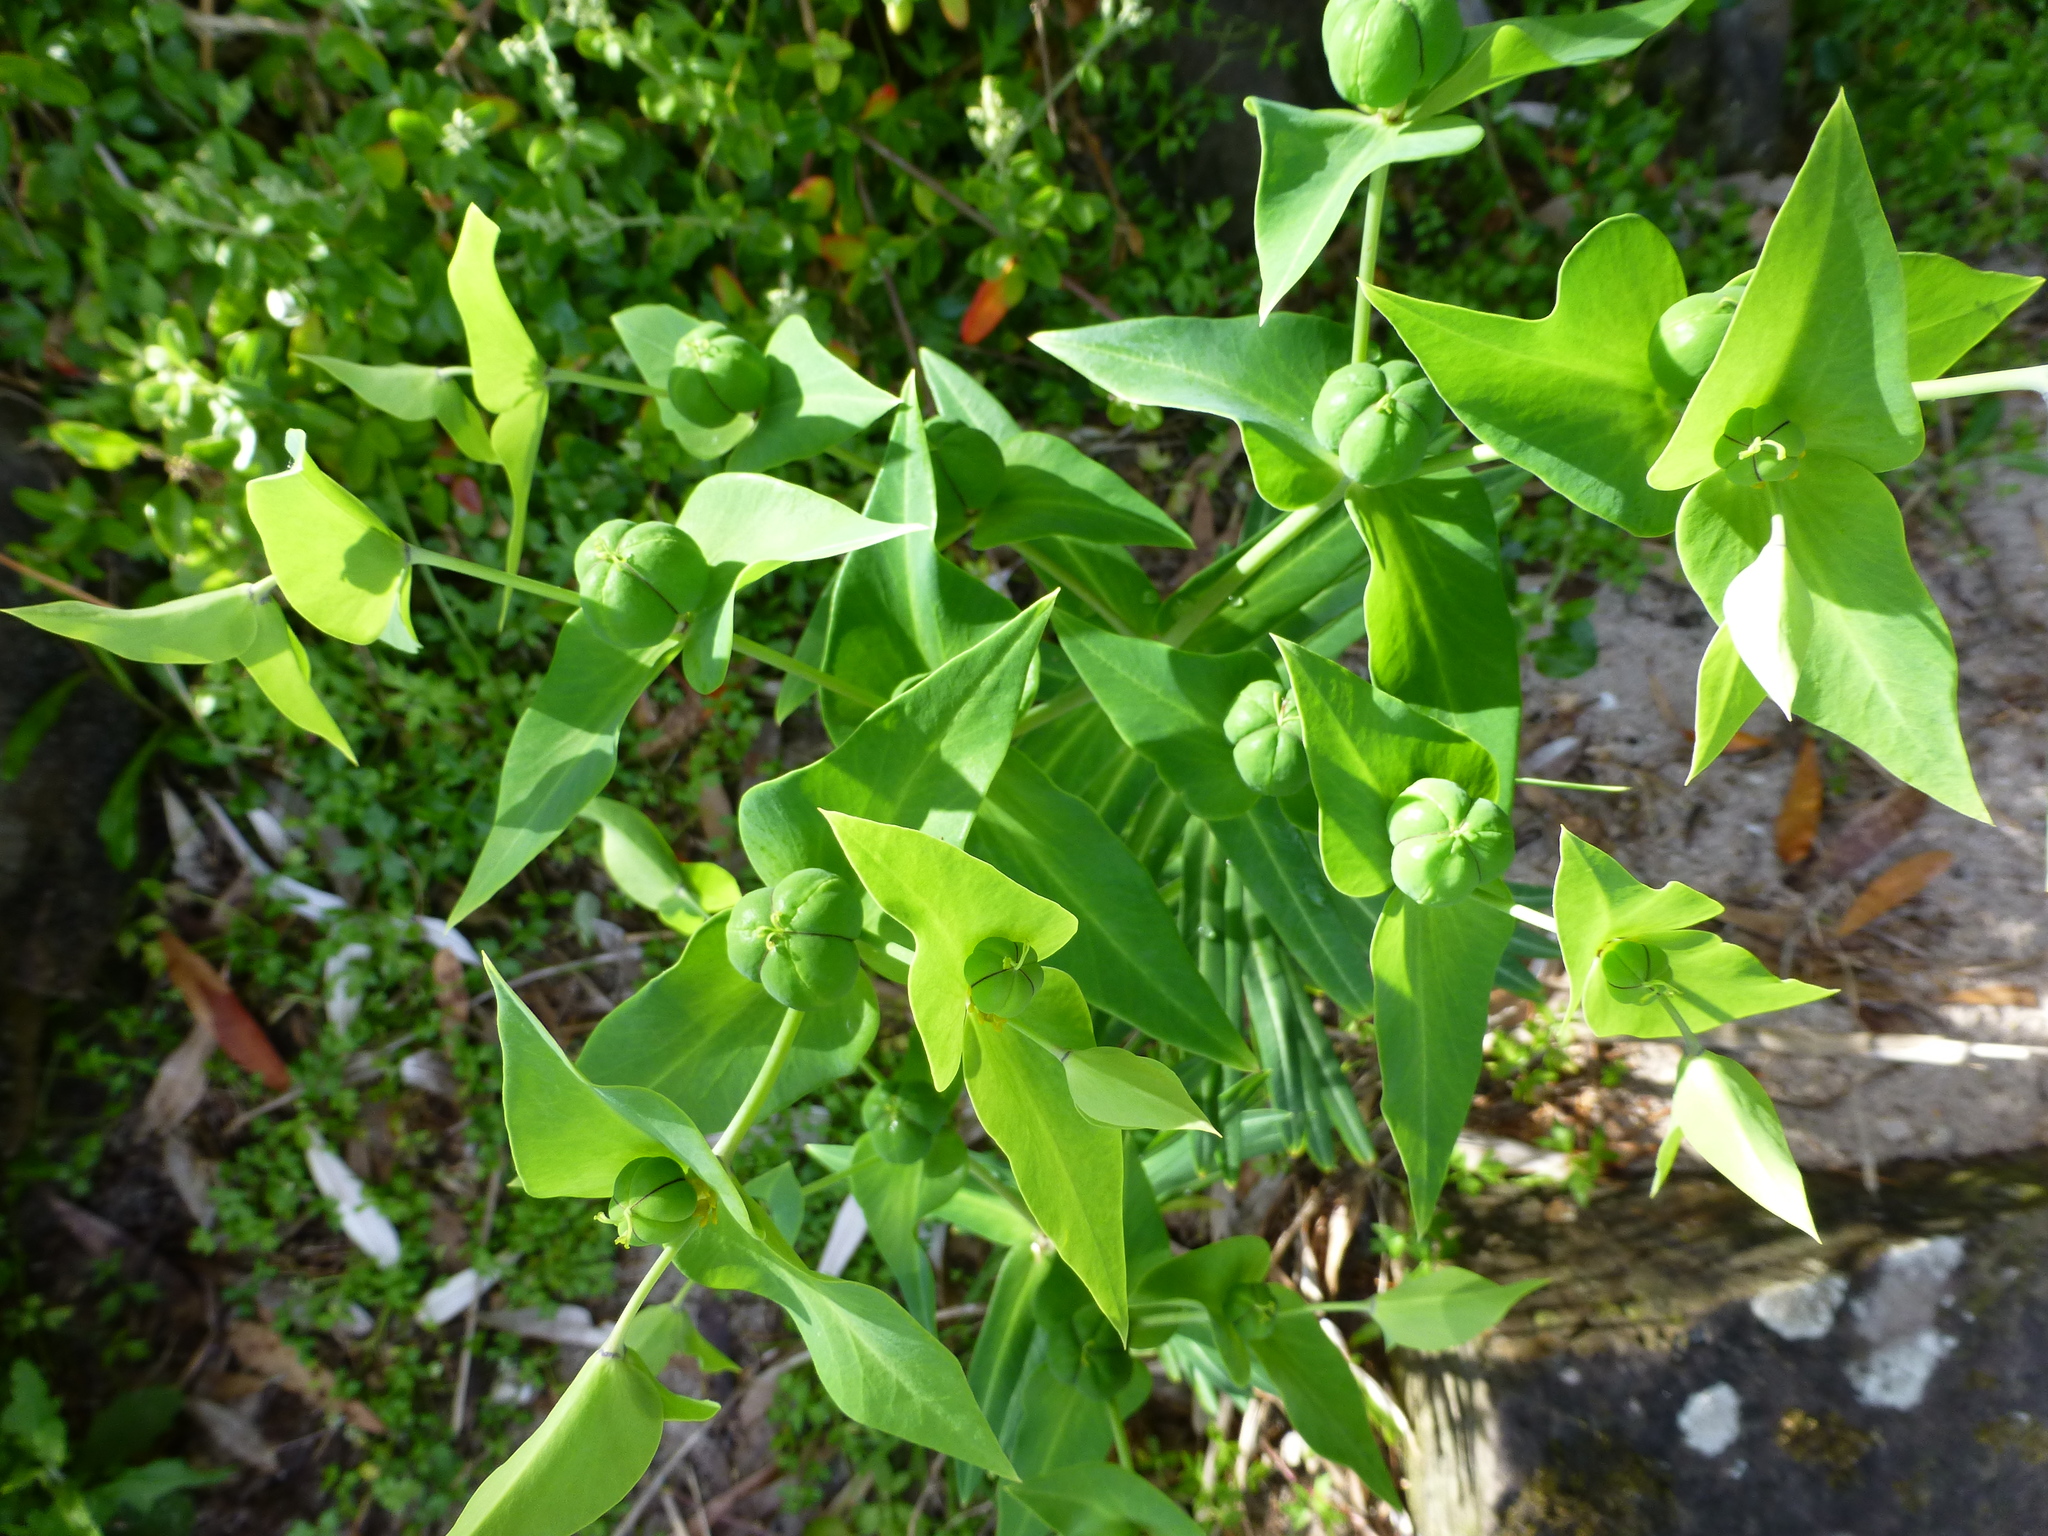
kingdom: Plantae
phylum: Tracheophyta
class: Magnoliopsida
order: Malpighiales
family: Euphorbiaceae
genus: Euphorbia
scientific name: Euphorbia lathyris
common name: Caper spurge
